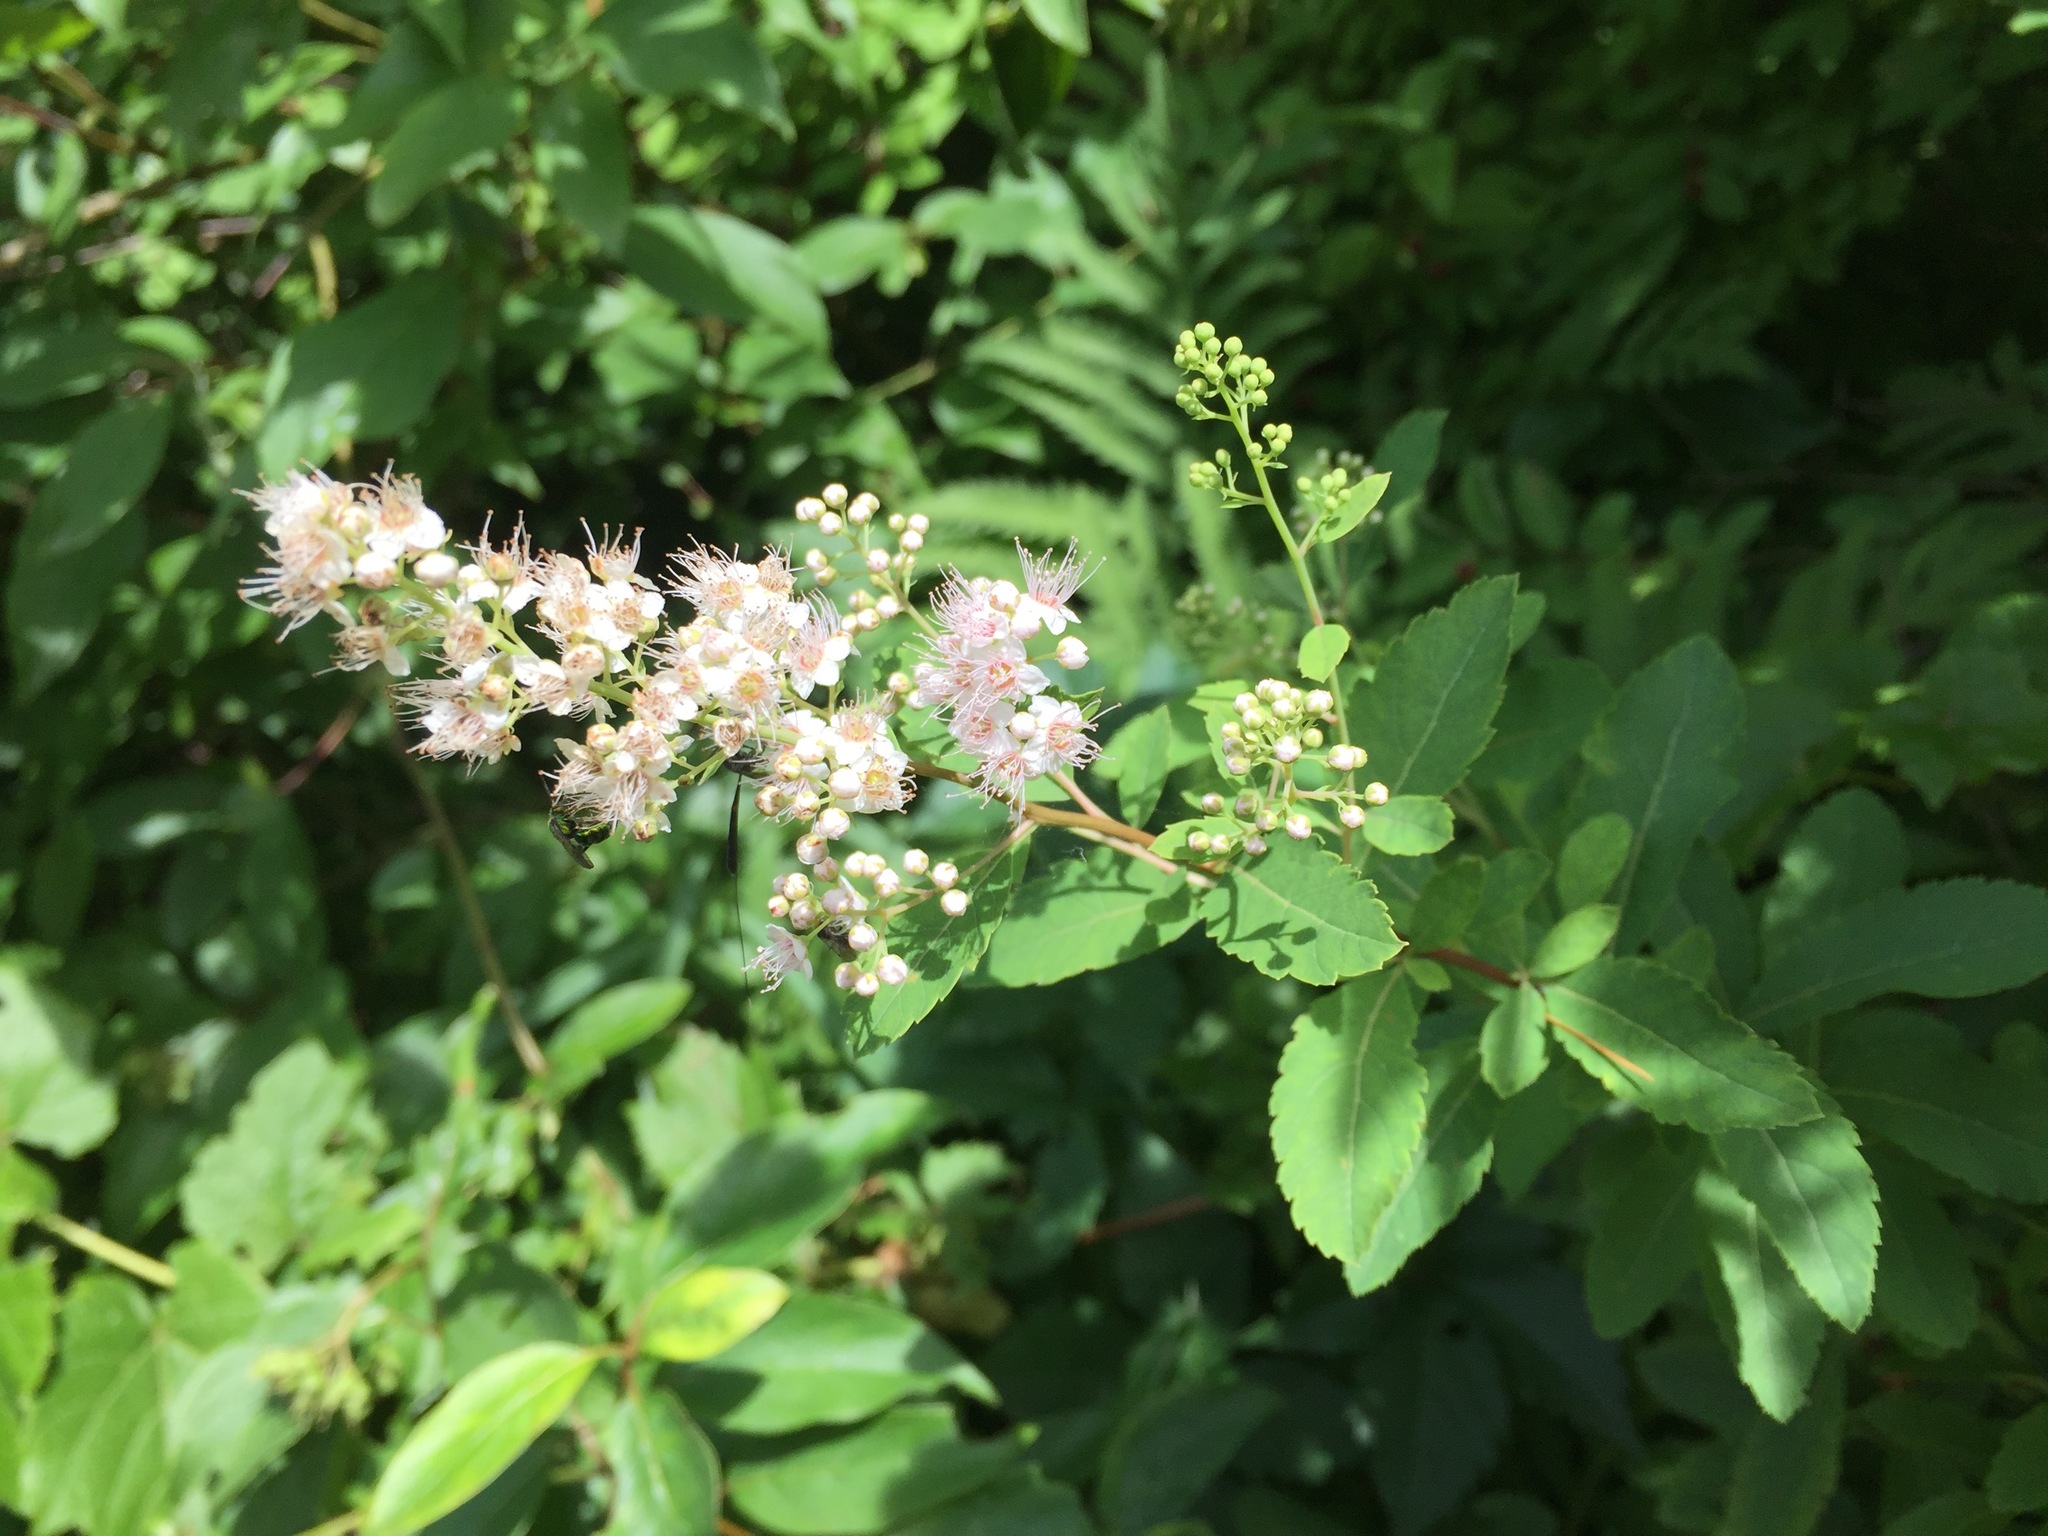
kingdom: Plantae
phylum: Tracheophyta
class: Magnoliopsida
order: Rosales
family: Rosaceae
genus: Spiraea
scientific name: Spiraea alba
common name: Pale bridewort
